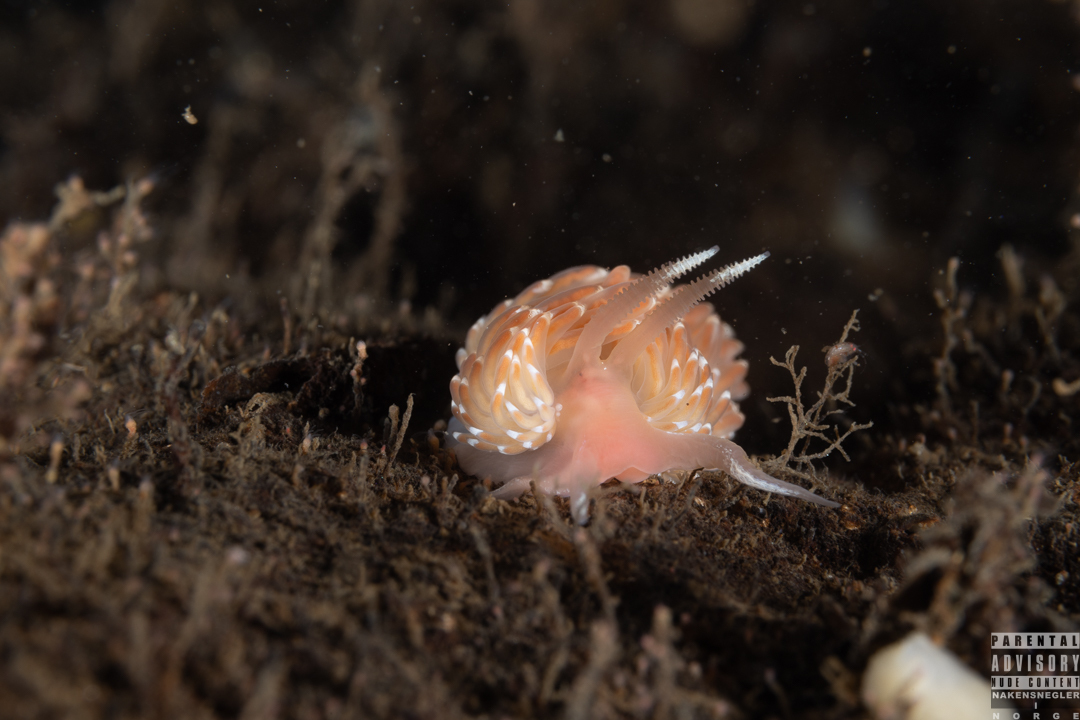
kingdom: Animalia
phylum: Mollusca
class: Gastropoda
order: Nudibranchia
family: Facelinidae
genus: Facelina
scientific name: Facelina bostoniensis
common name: Boston facelina
